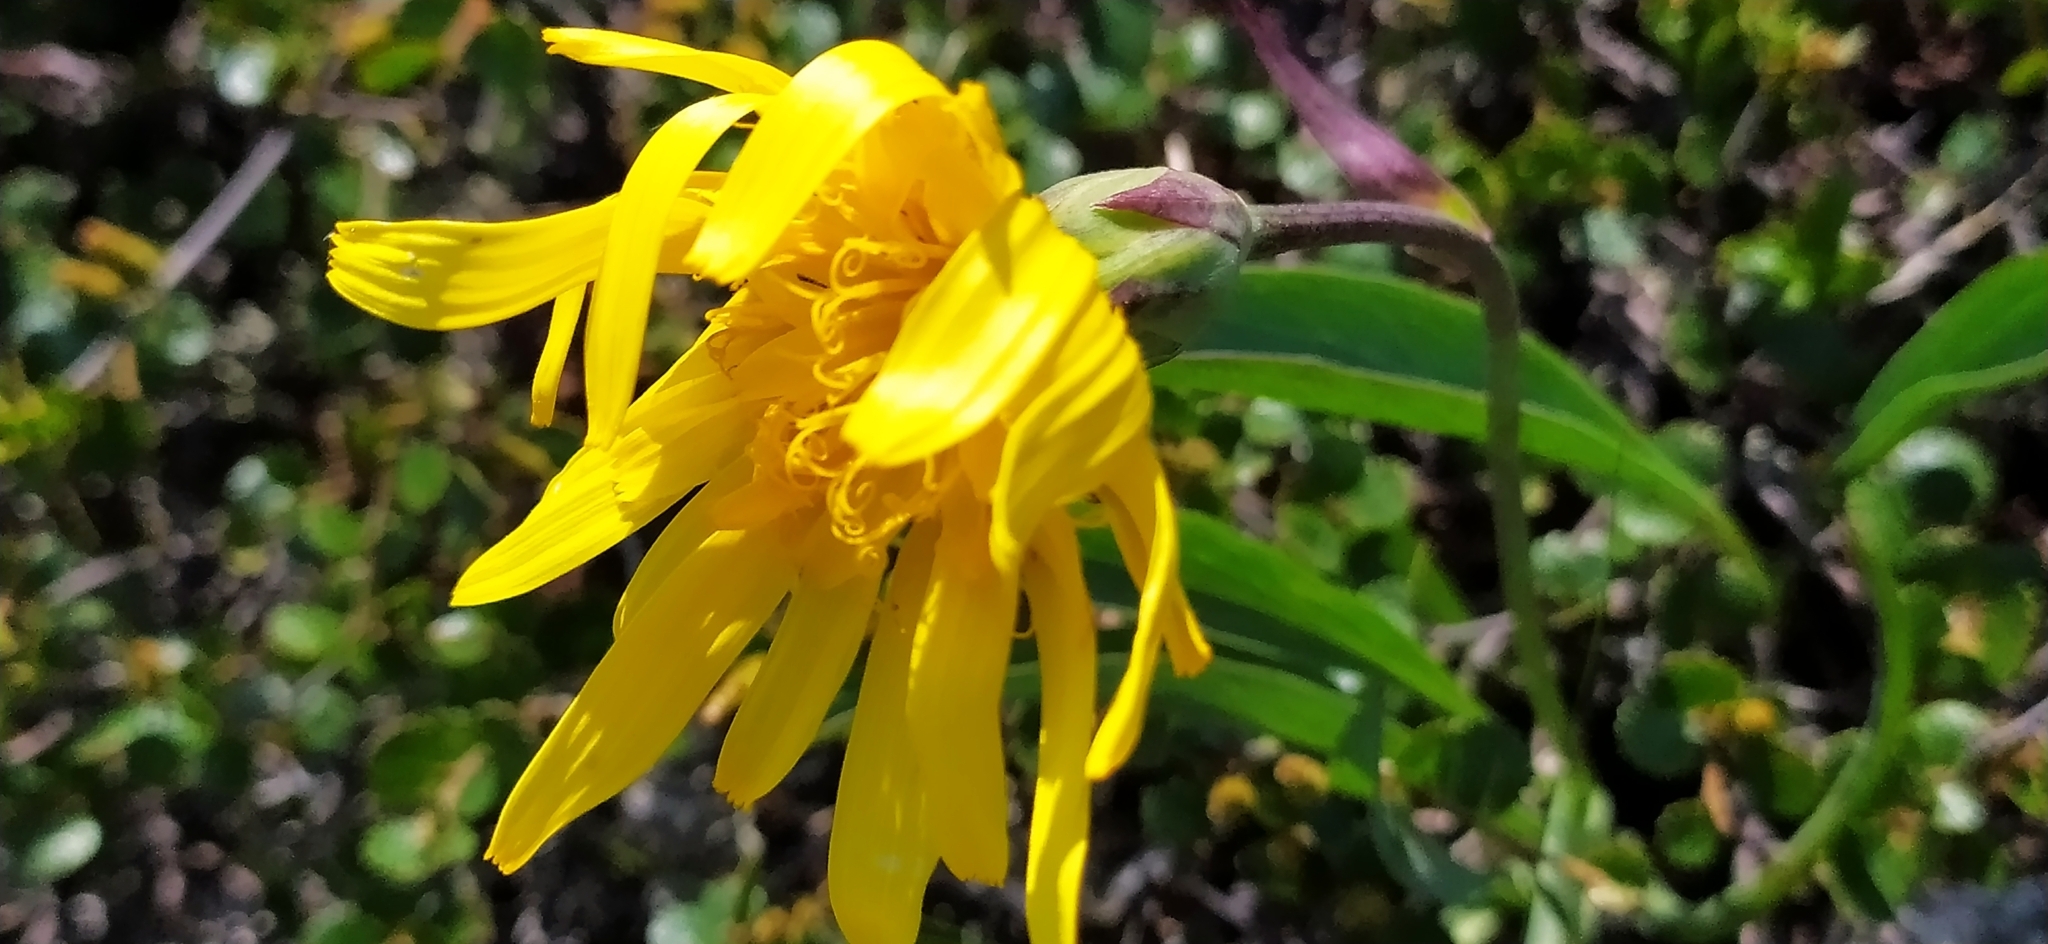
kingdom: Plantae
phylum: Tracheophyta
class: Magnoliopsida
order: Asterales
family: Asteraceae
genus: Scorzonera
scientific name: Scorzonera glabra
